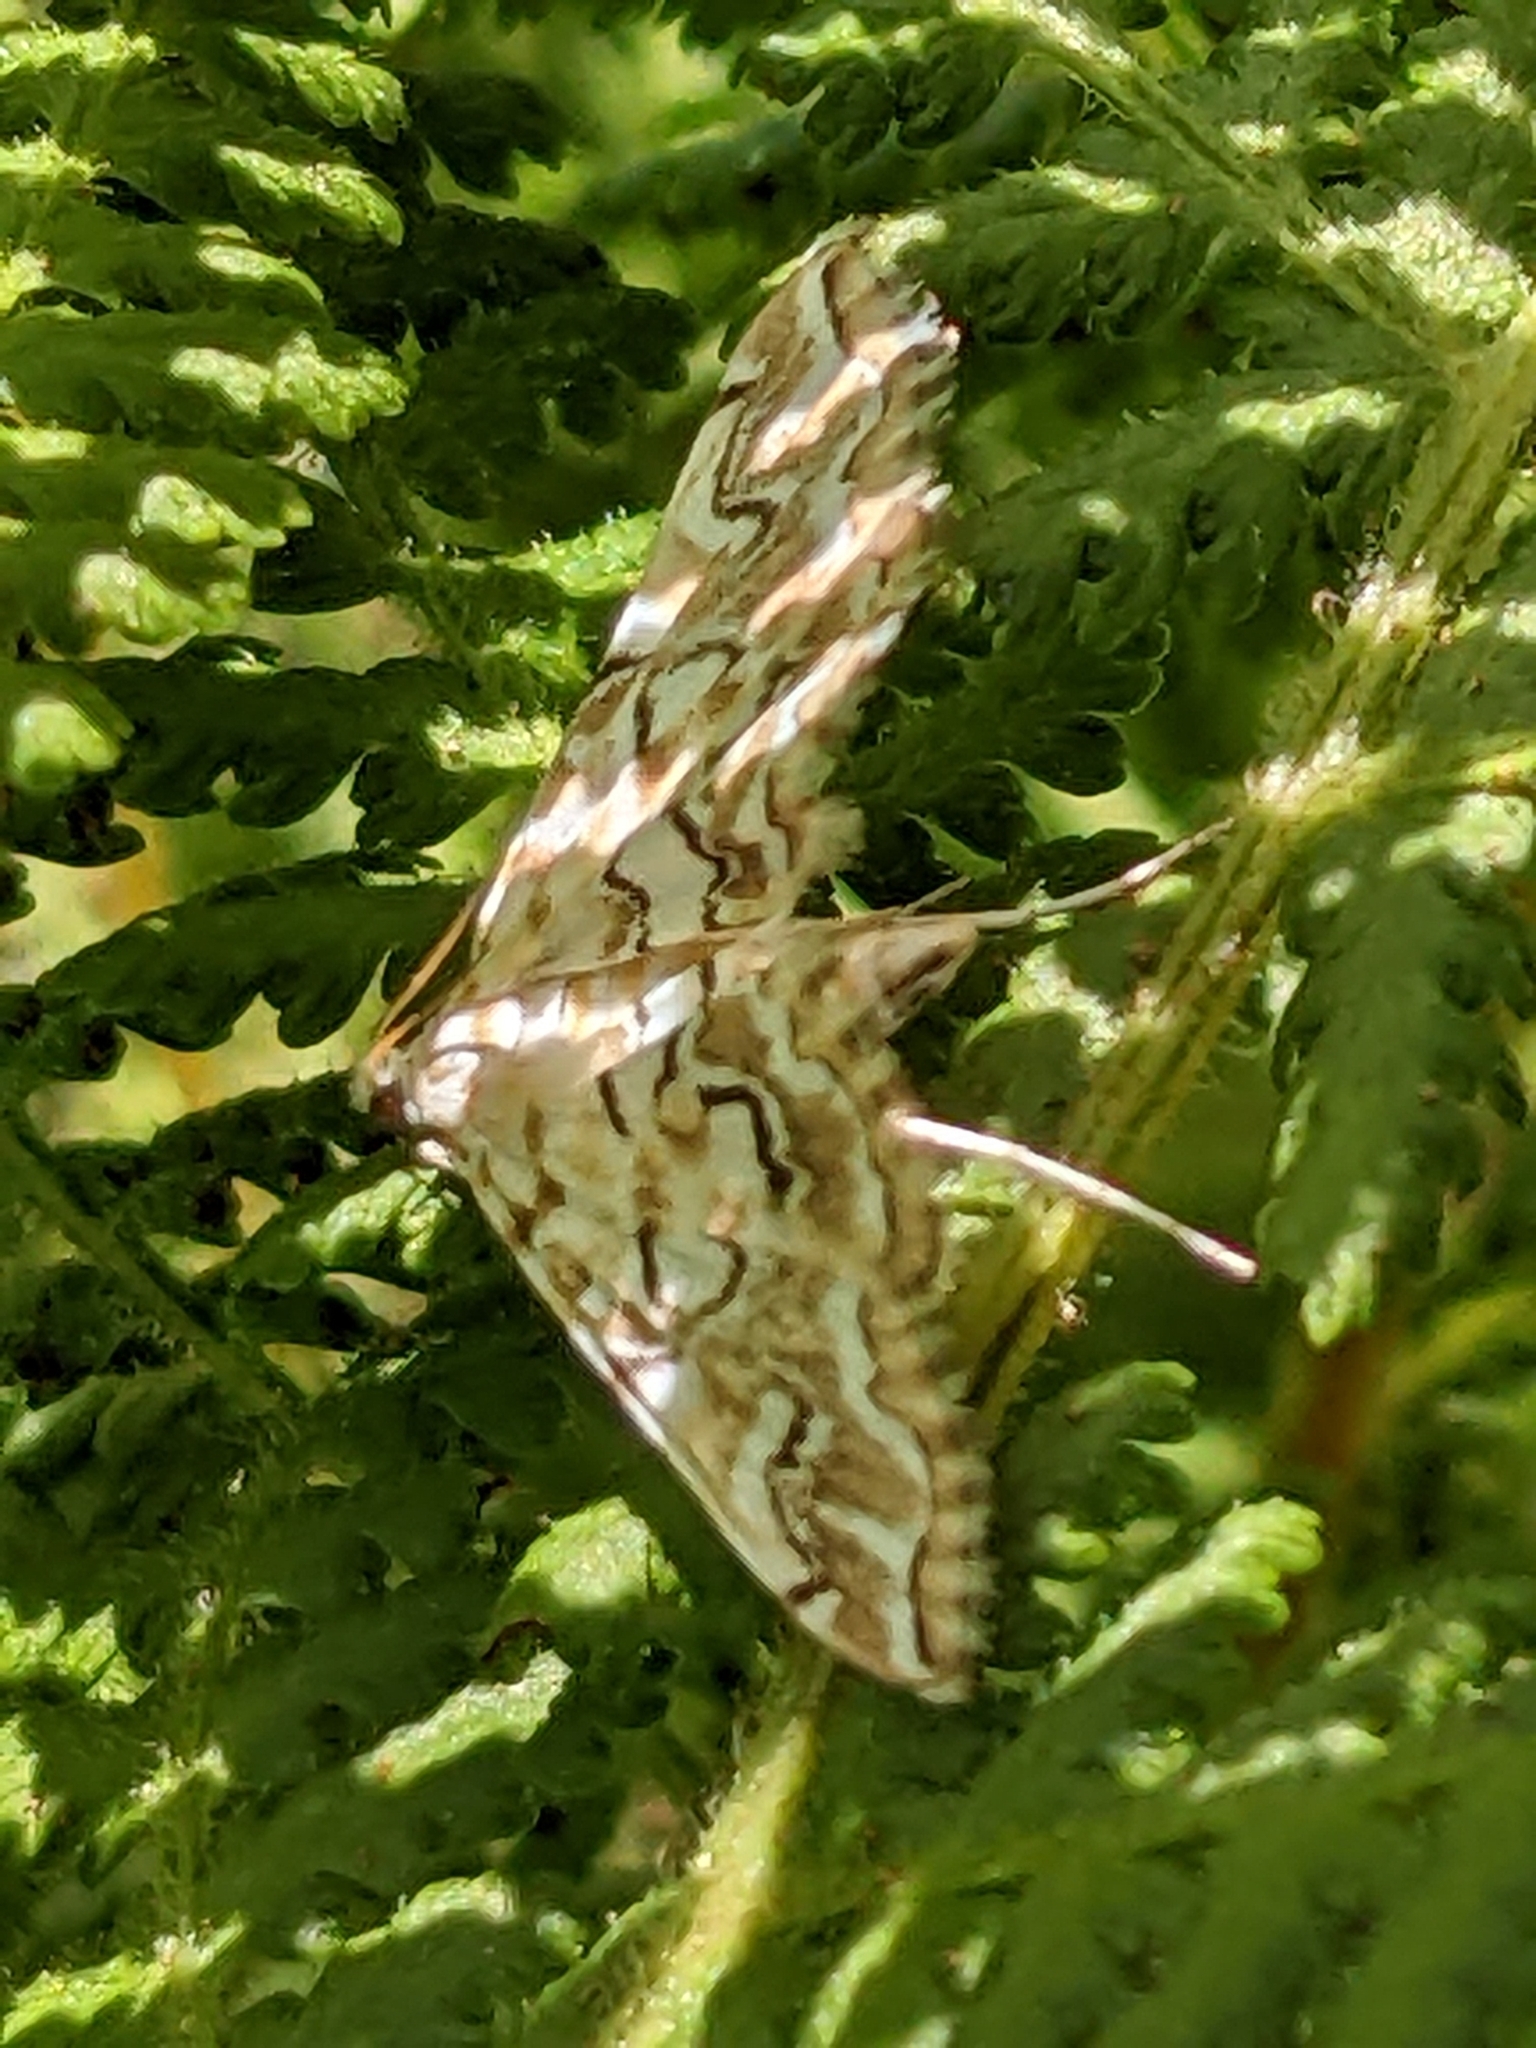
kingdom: Animalia
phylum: Arthropoda
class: Insecta
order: Lepidoptera
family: Crambidae
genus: Elophila
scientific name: Elophila icciusalis
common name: Pondside pyralid moth
